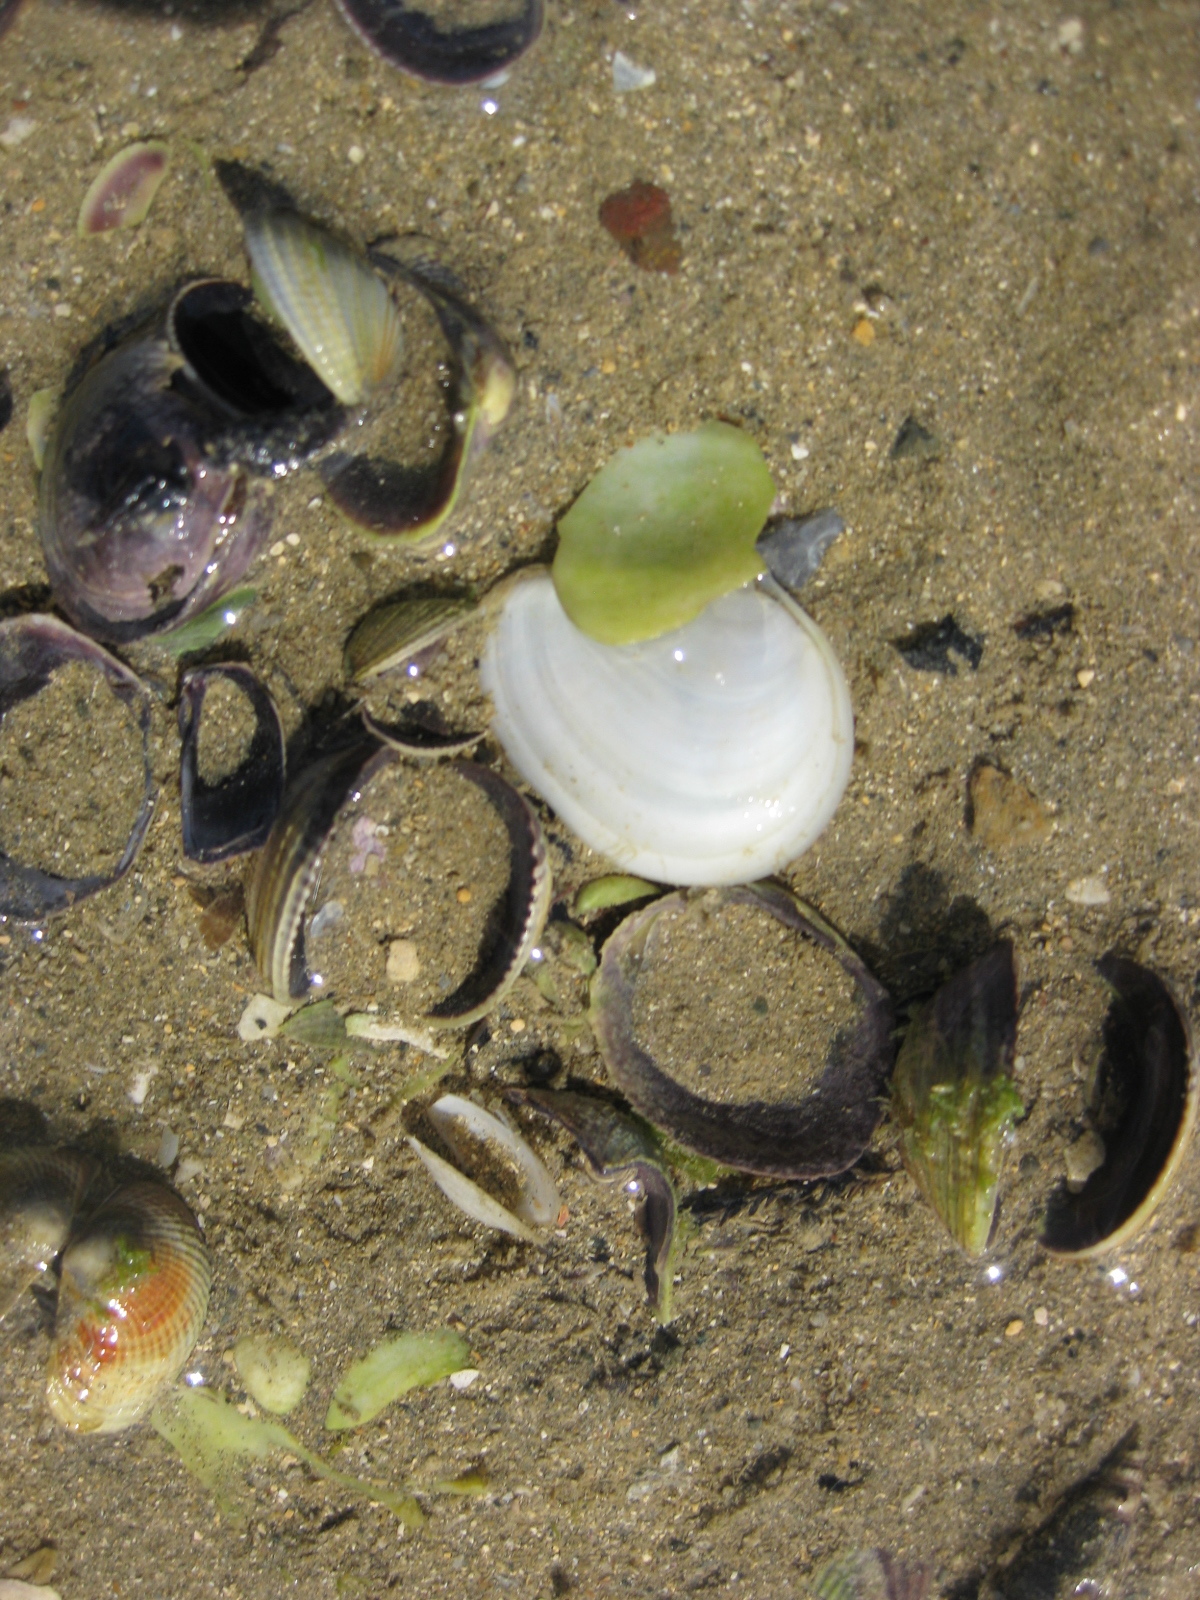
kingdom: Animalia
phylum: Mollusca
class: Bivalvia
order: Cardiida
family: Tellinidae
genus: Macomona
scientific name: Macomona liliana
